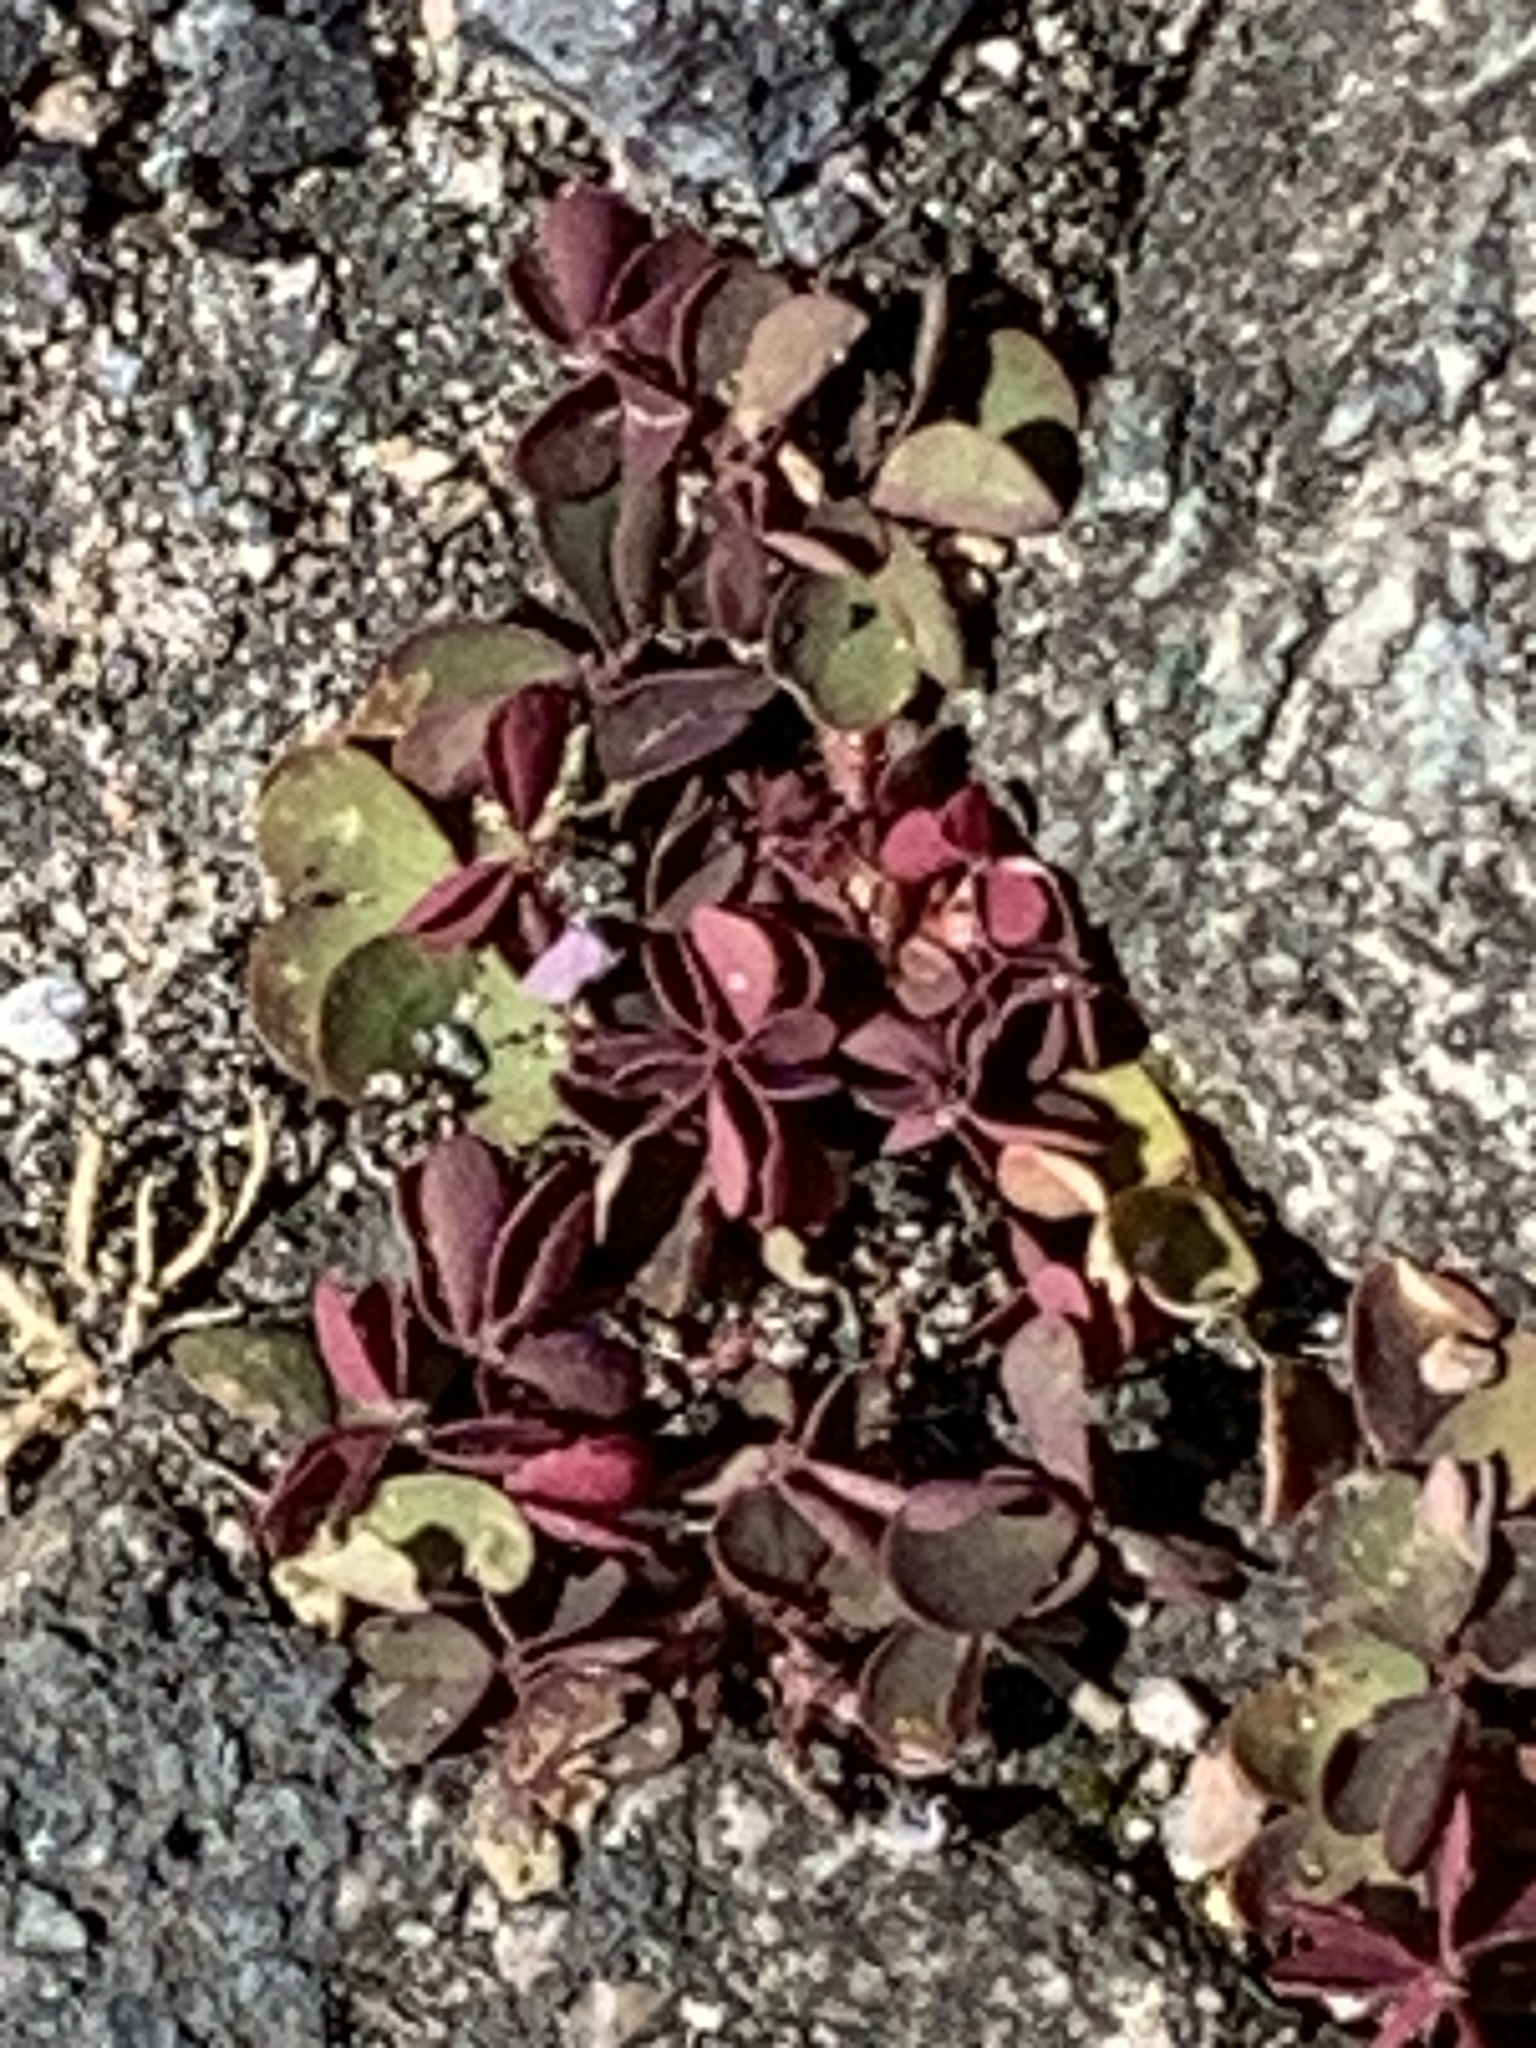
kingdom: Plantae
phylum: Tracheophyta
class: Magnoliopsida
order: Oxalidales
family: Oxalidaceae
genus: Oxalis
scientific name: Oxalis corniculata
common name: Procumbent yellow-sorrel
